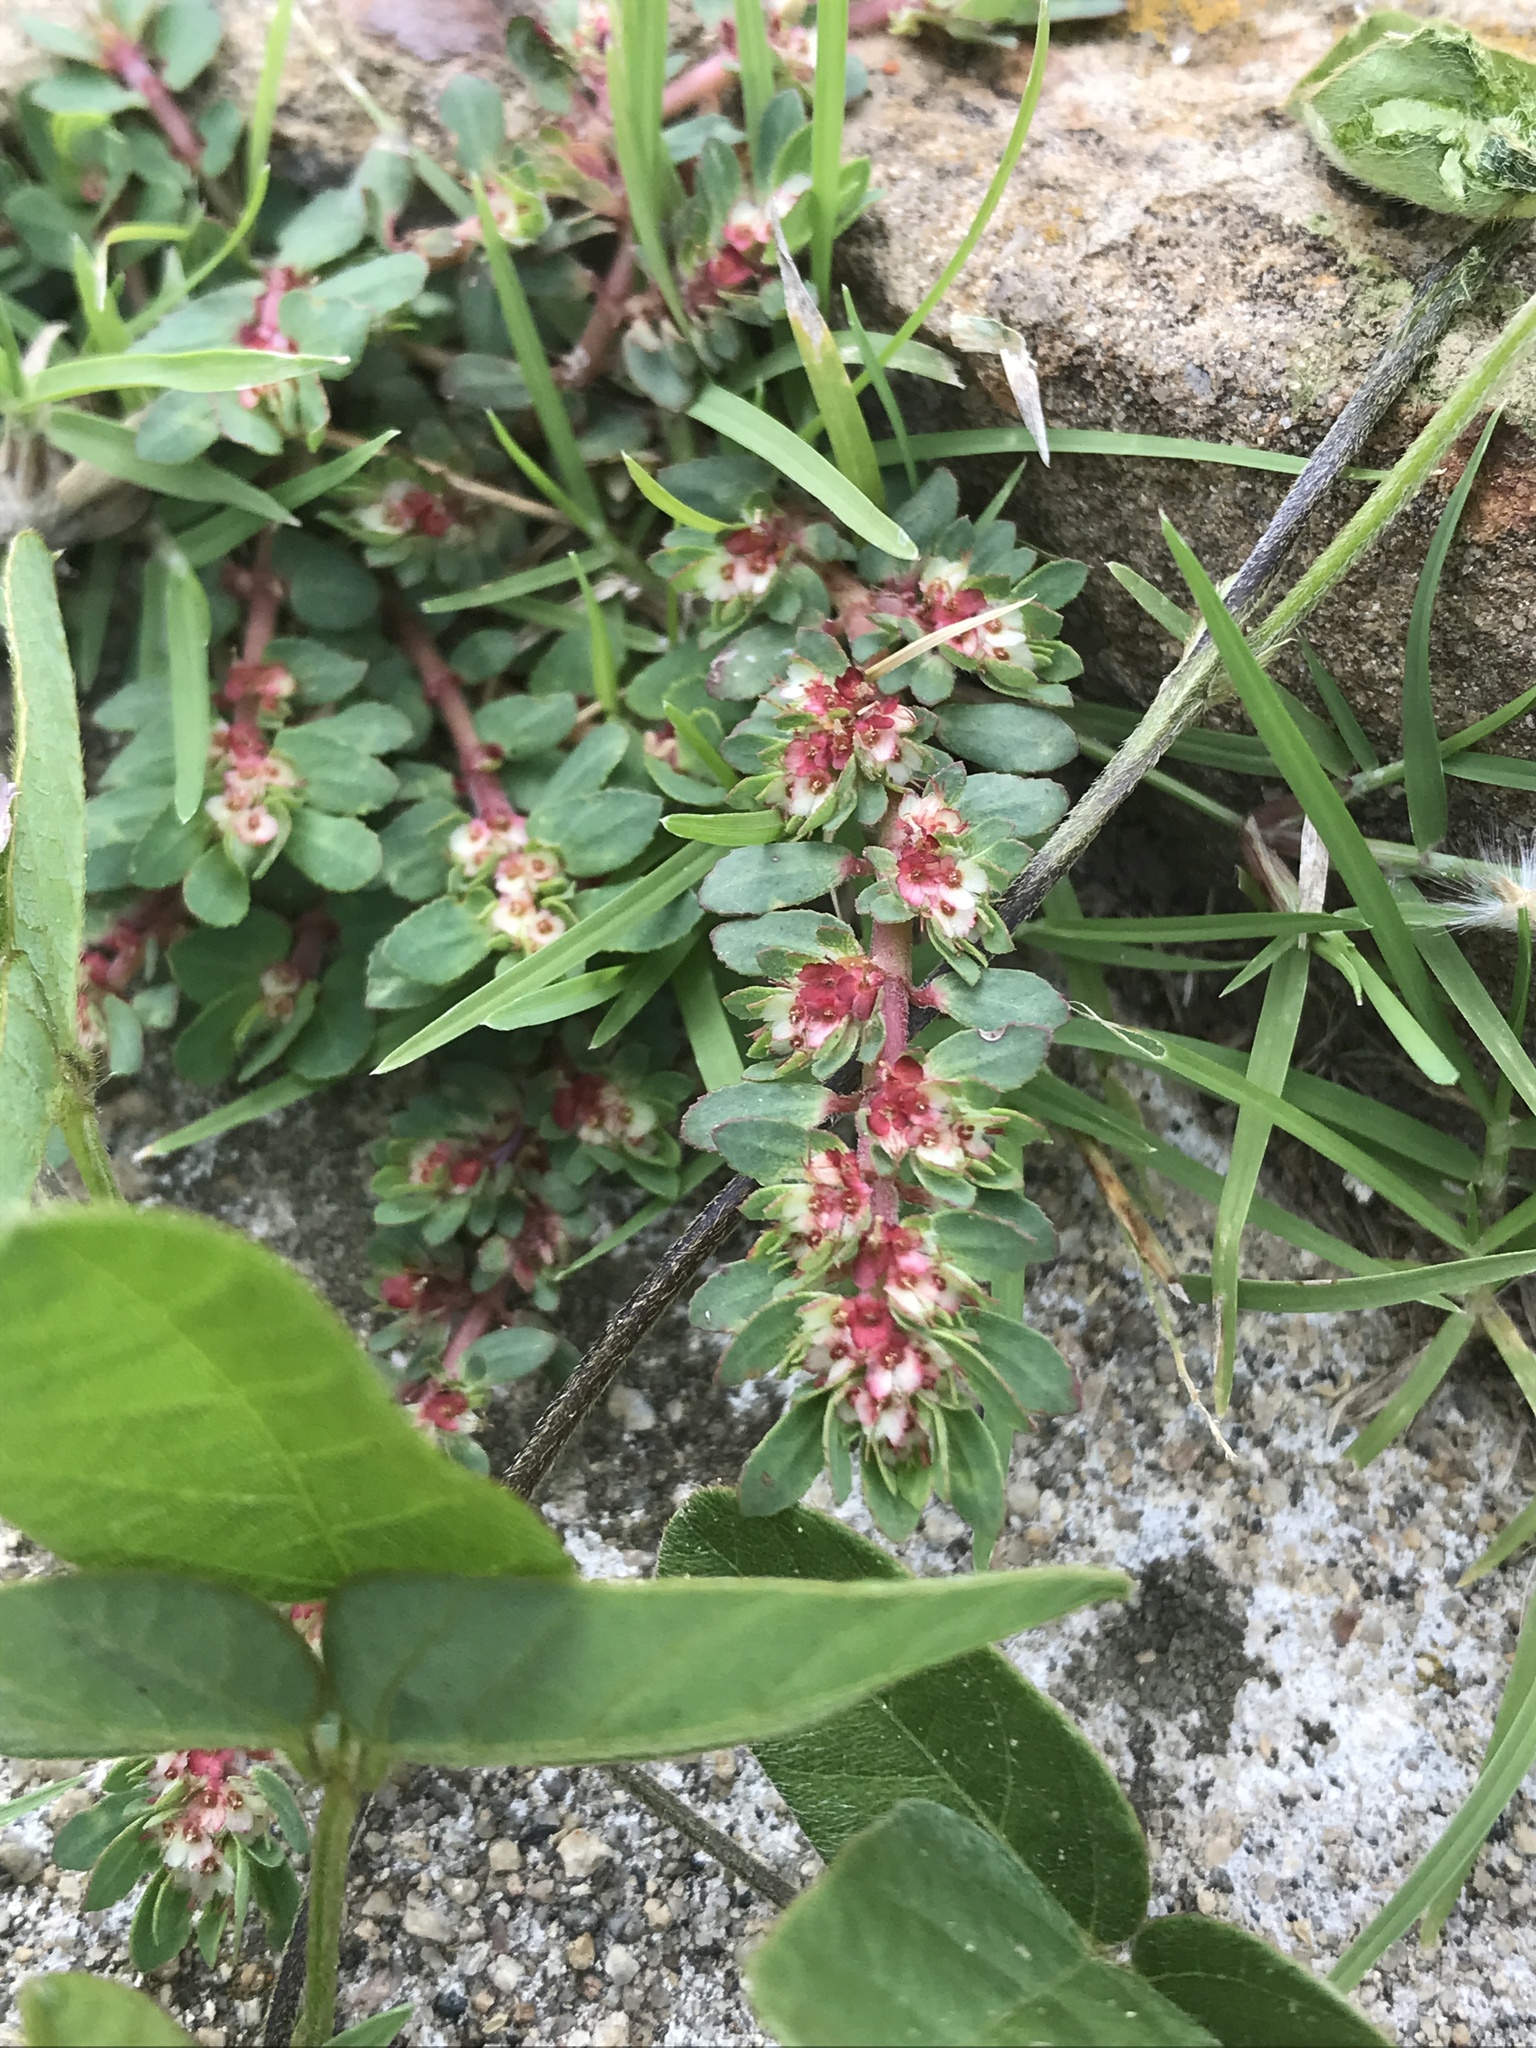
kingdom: Plantae
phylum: Tracheophyta
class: Magnoliopsida
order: Malpighiales
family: Euphorbiaceae
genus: Euphorbia
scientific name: Euphorbia indivisa
